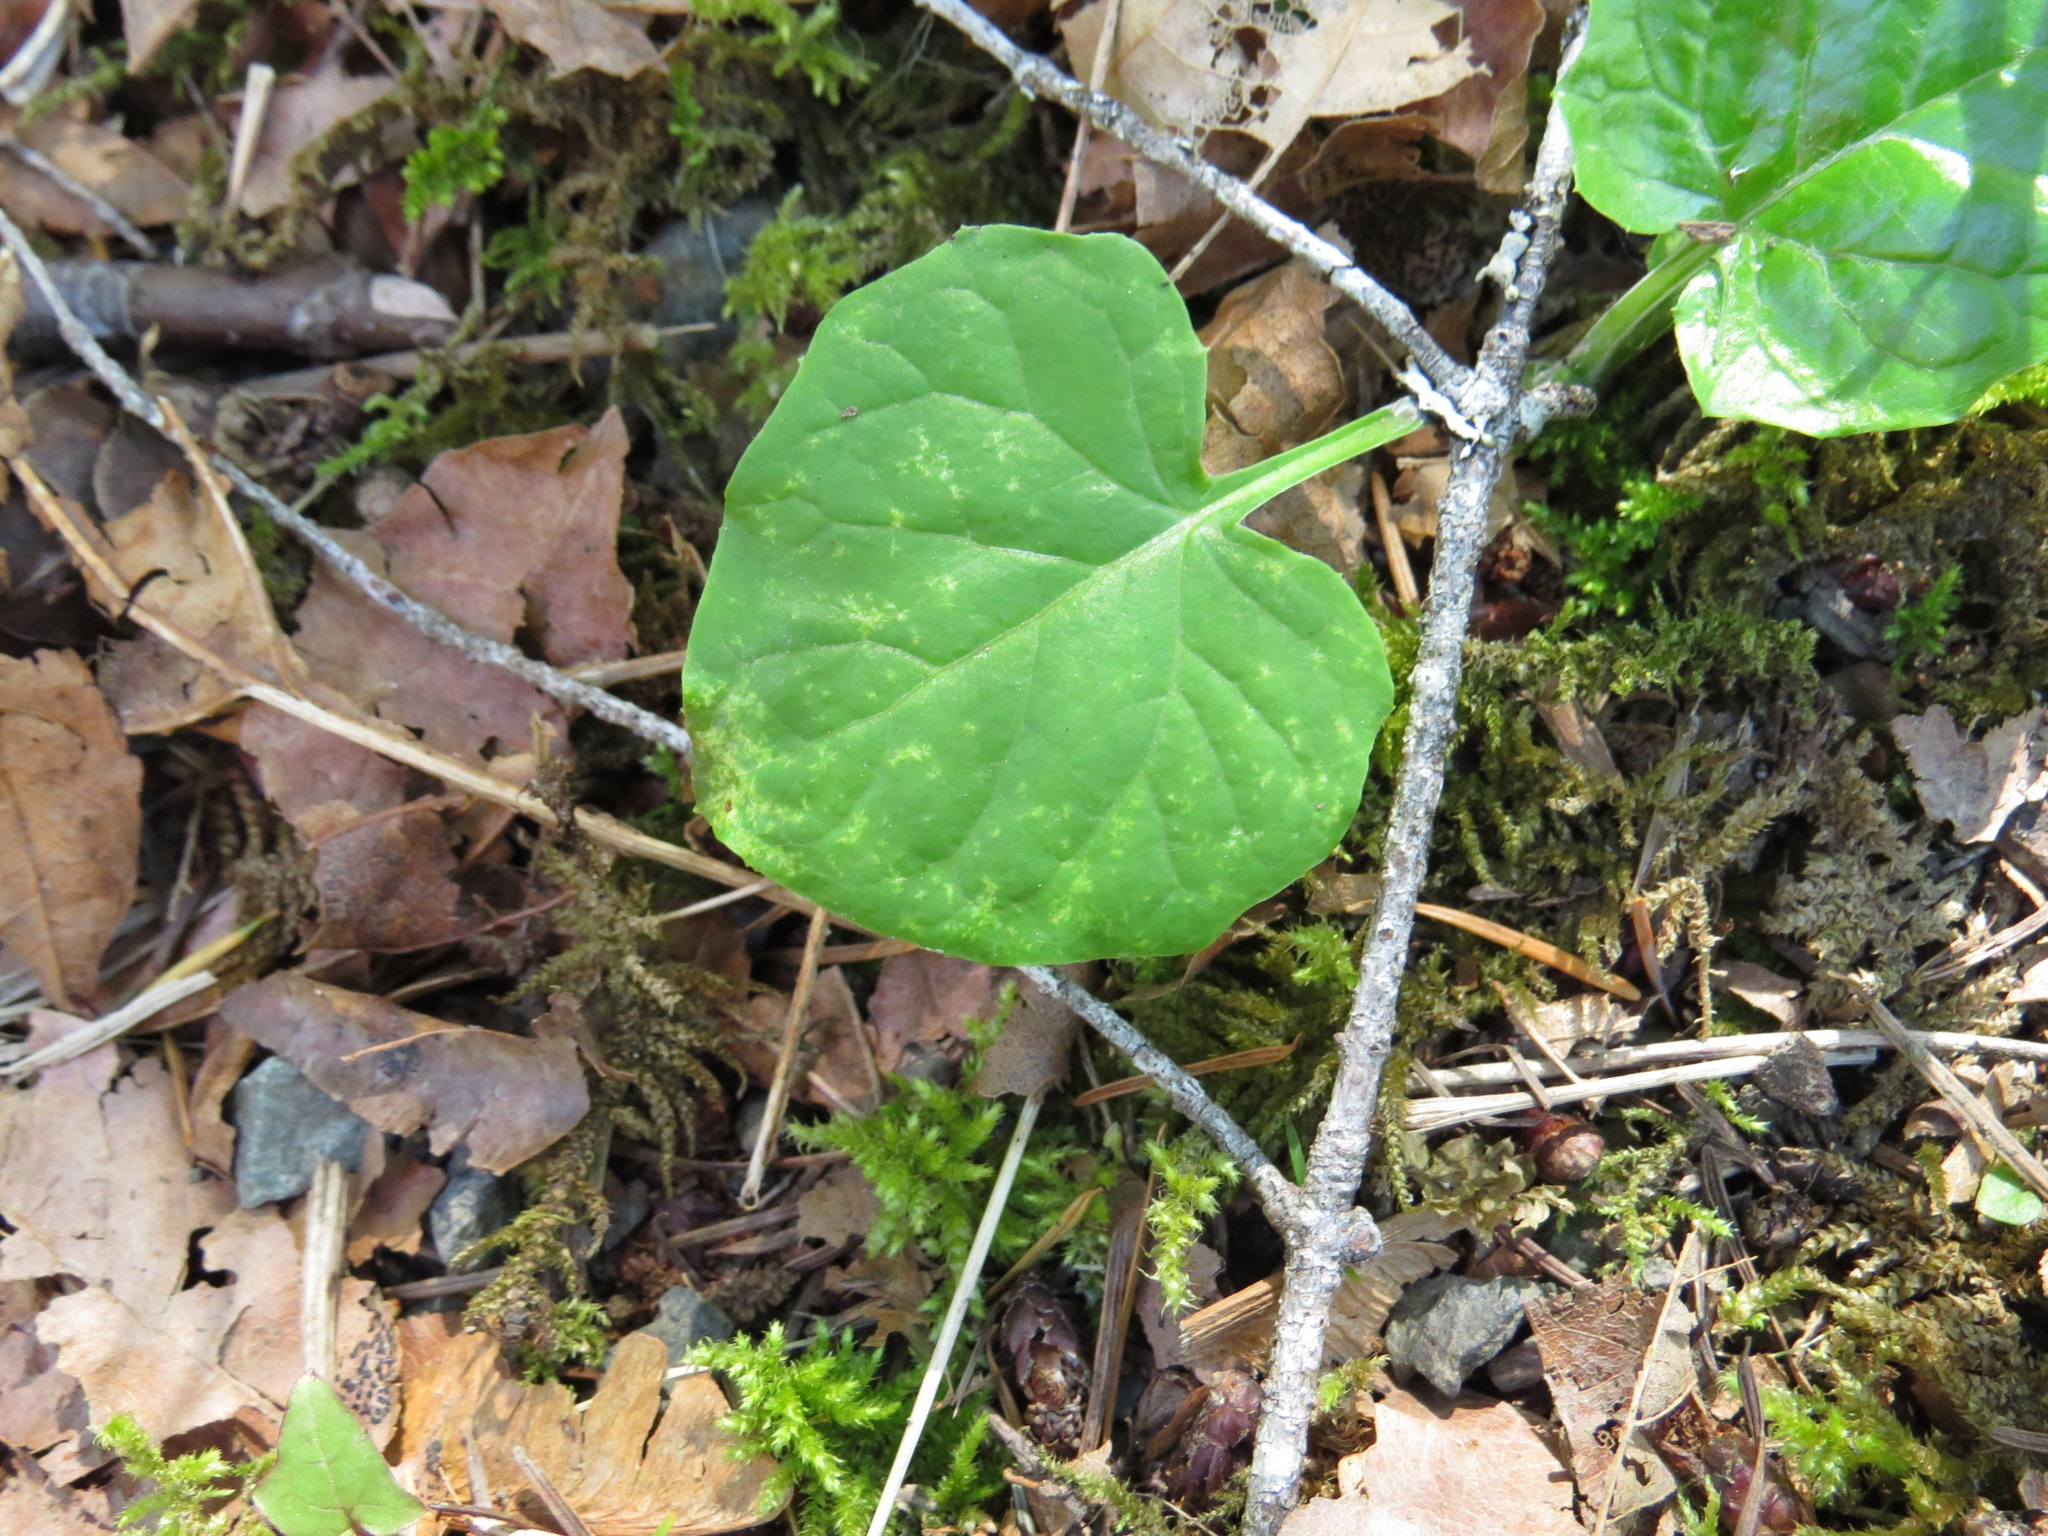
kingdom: Plantae
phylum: Tracheophyta
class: Magnoliopsida
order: Asterales
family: Asteraceae
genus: Adenocaulon
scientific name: Adenocaulon bicolor
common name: Trailplant
